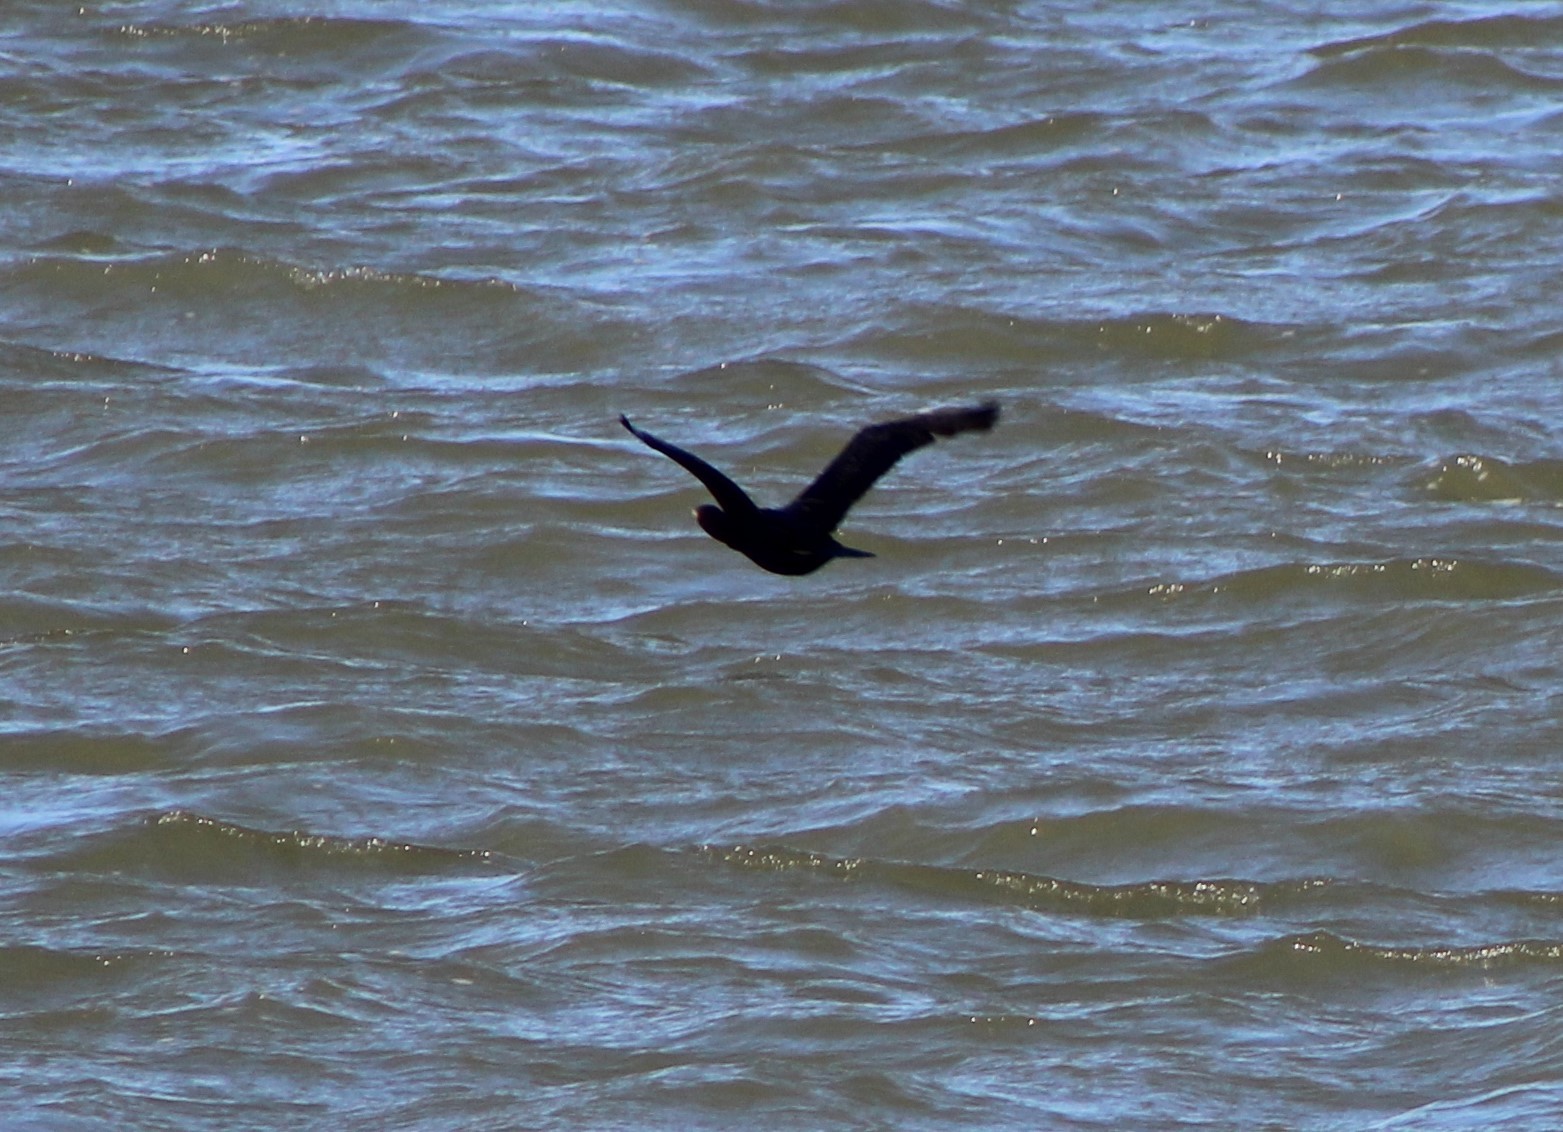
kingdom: Animalia
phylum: Chordata
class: Aves
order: Suliformes
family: Phalacrocoracidae
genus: Phalacrocorax
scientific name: Phalacrocorax auritus
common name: Double-crested cormorant
